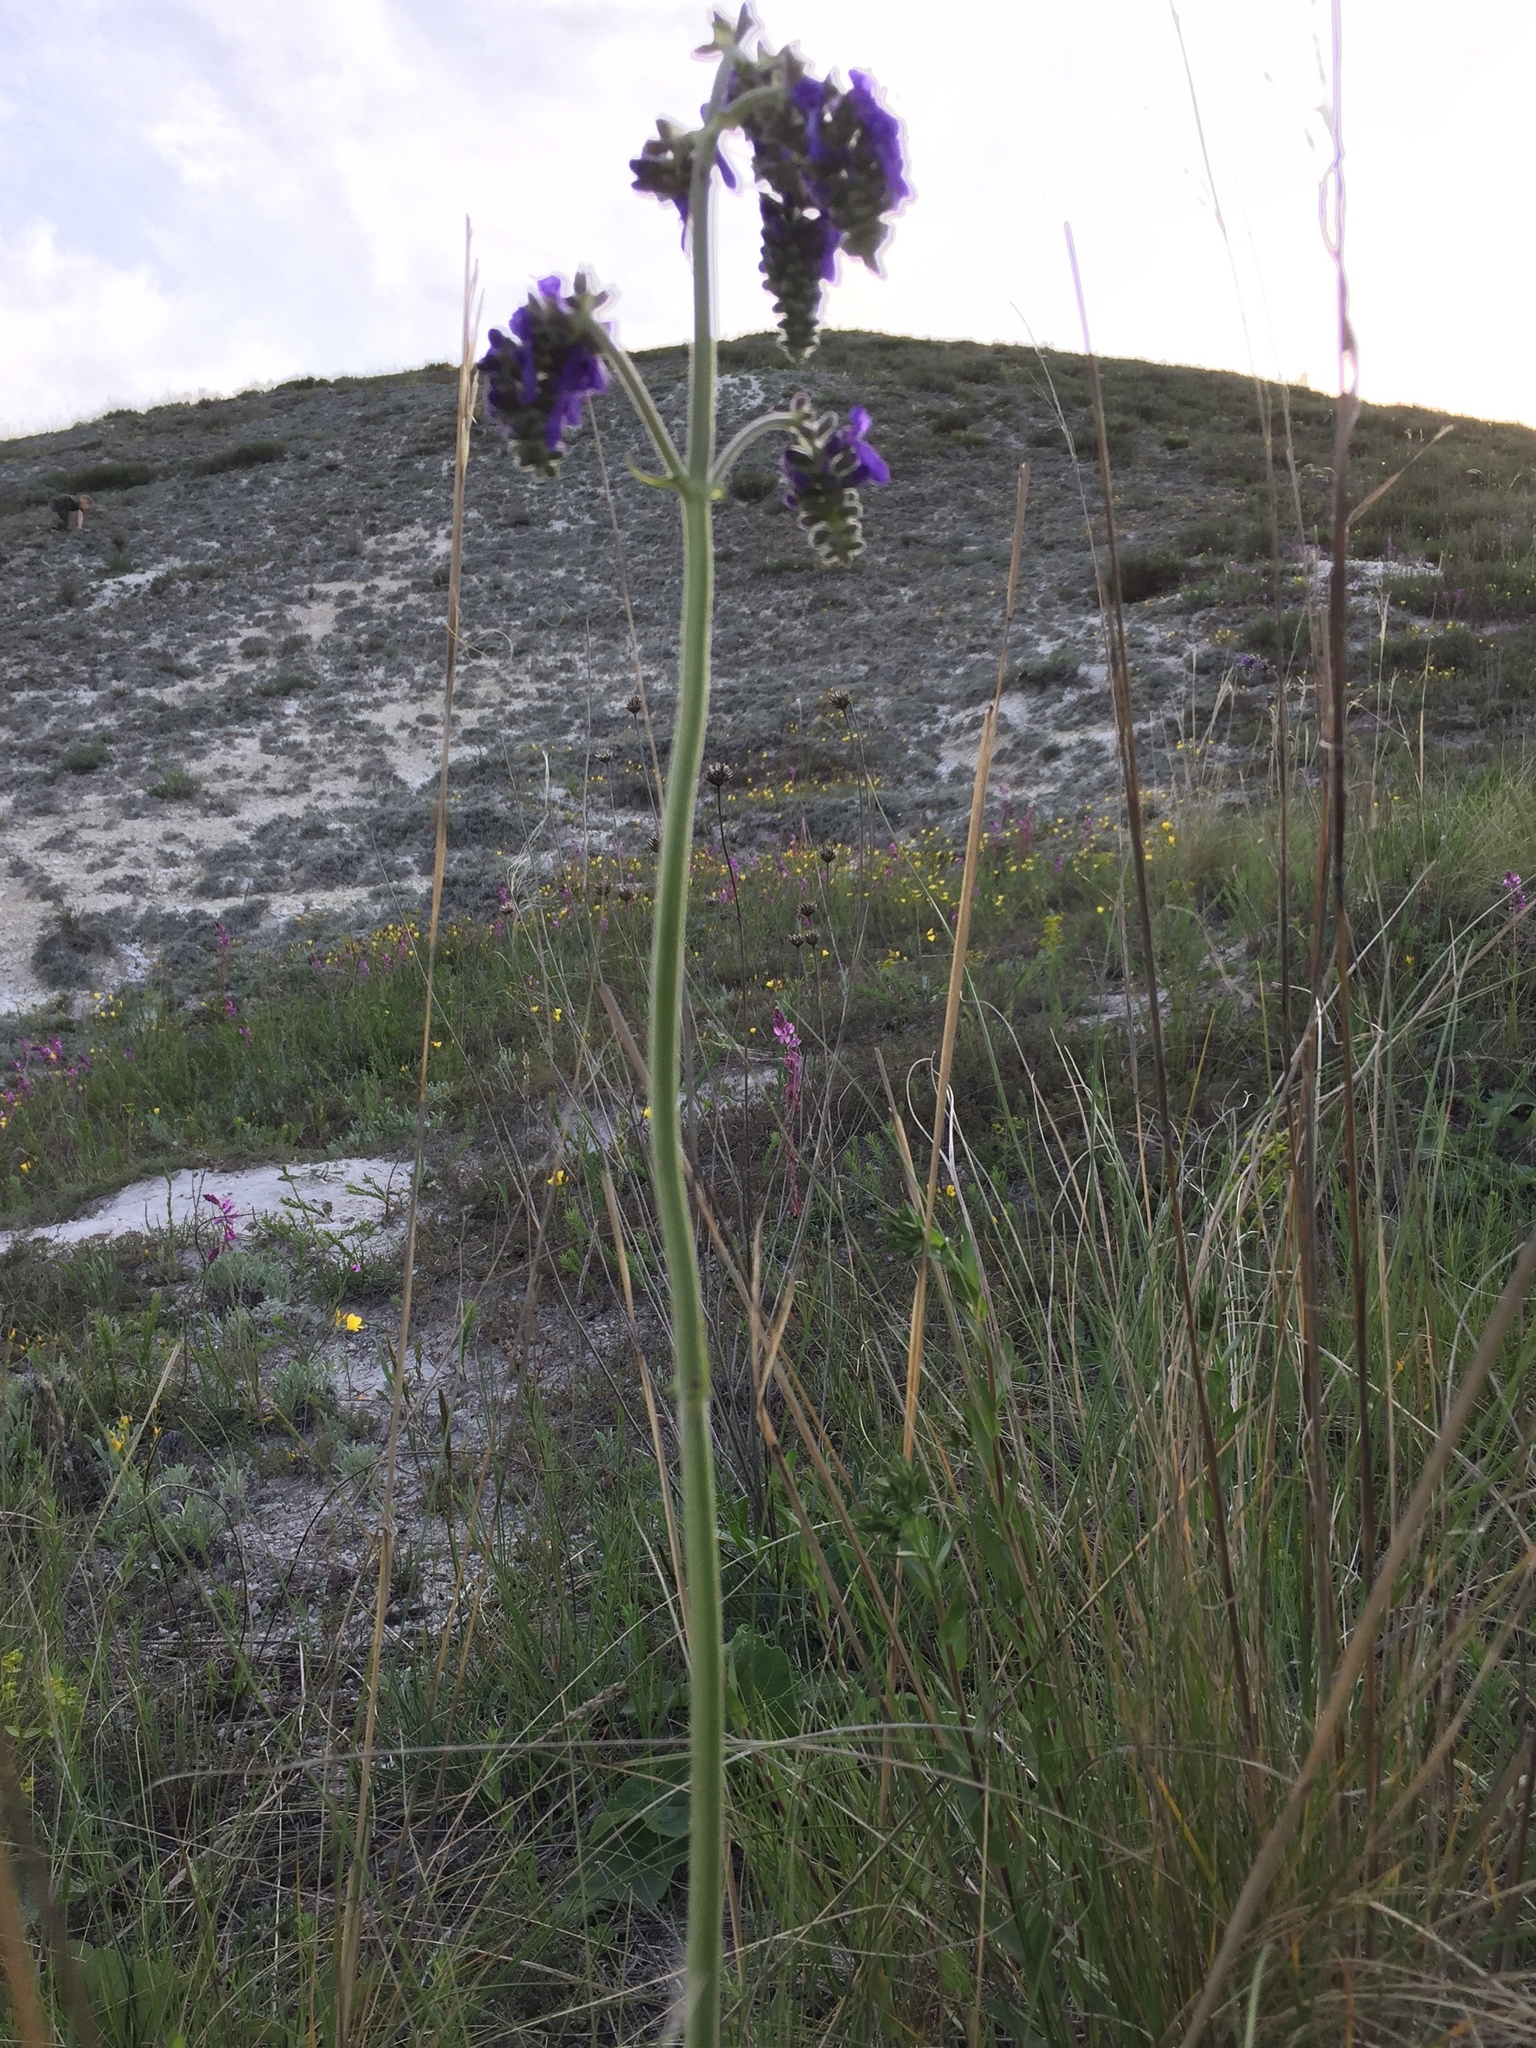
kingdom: Plantae
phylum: Tracheophyta
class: Magnoliopsida
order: Lamiales
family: Lamiaceae
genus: Salvia
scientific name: Salvia nutans
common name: Nodding sage
